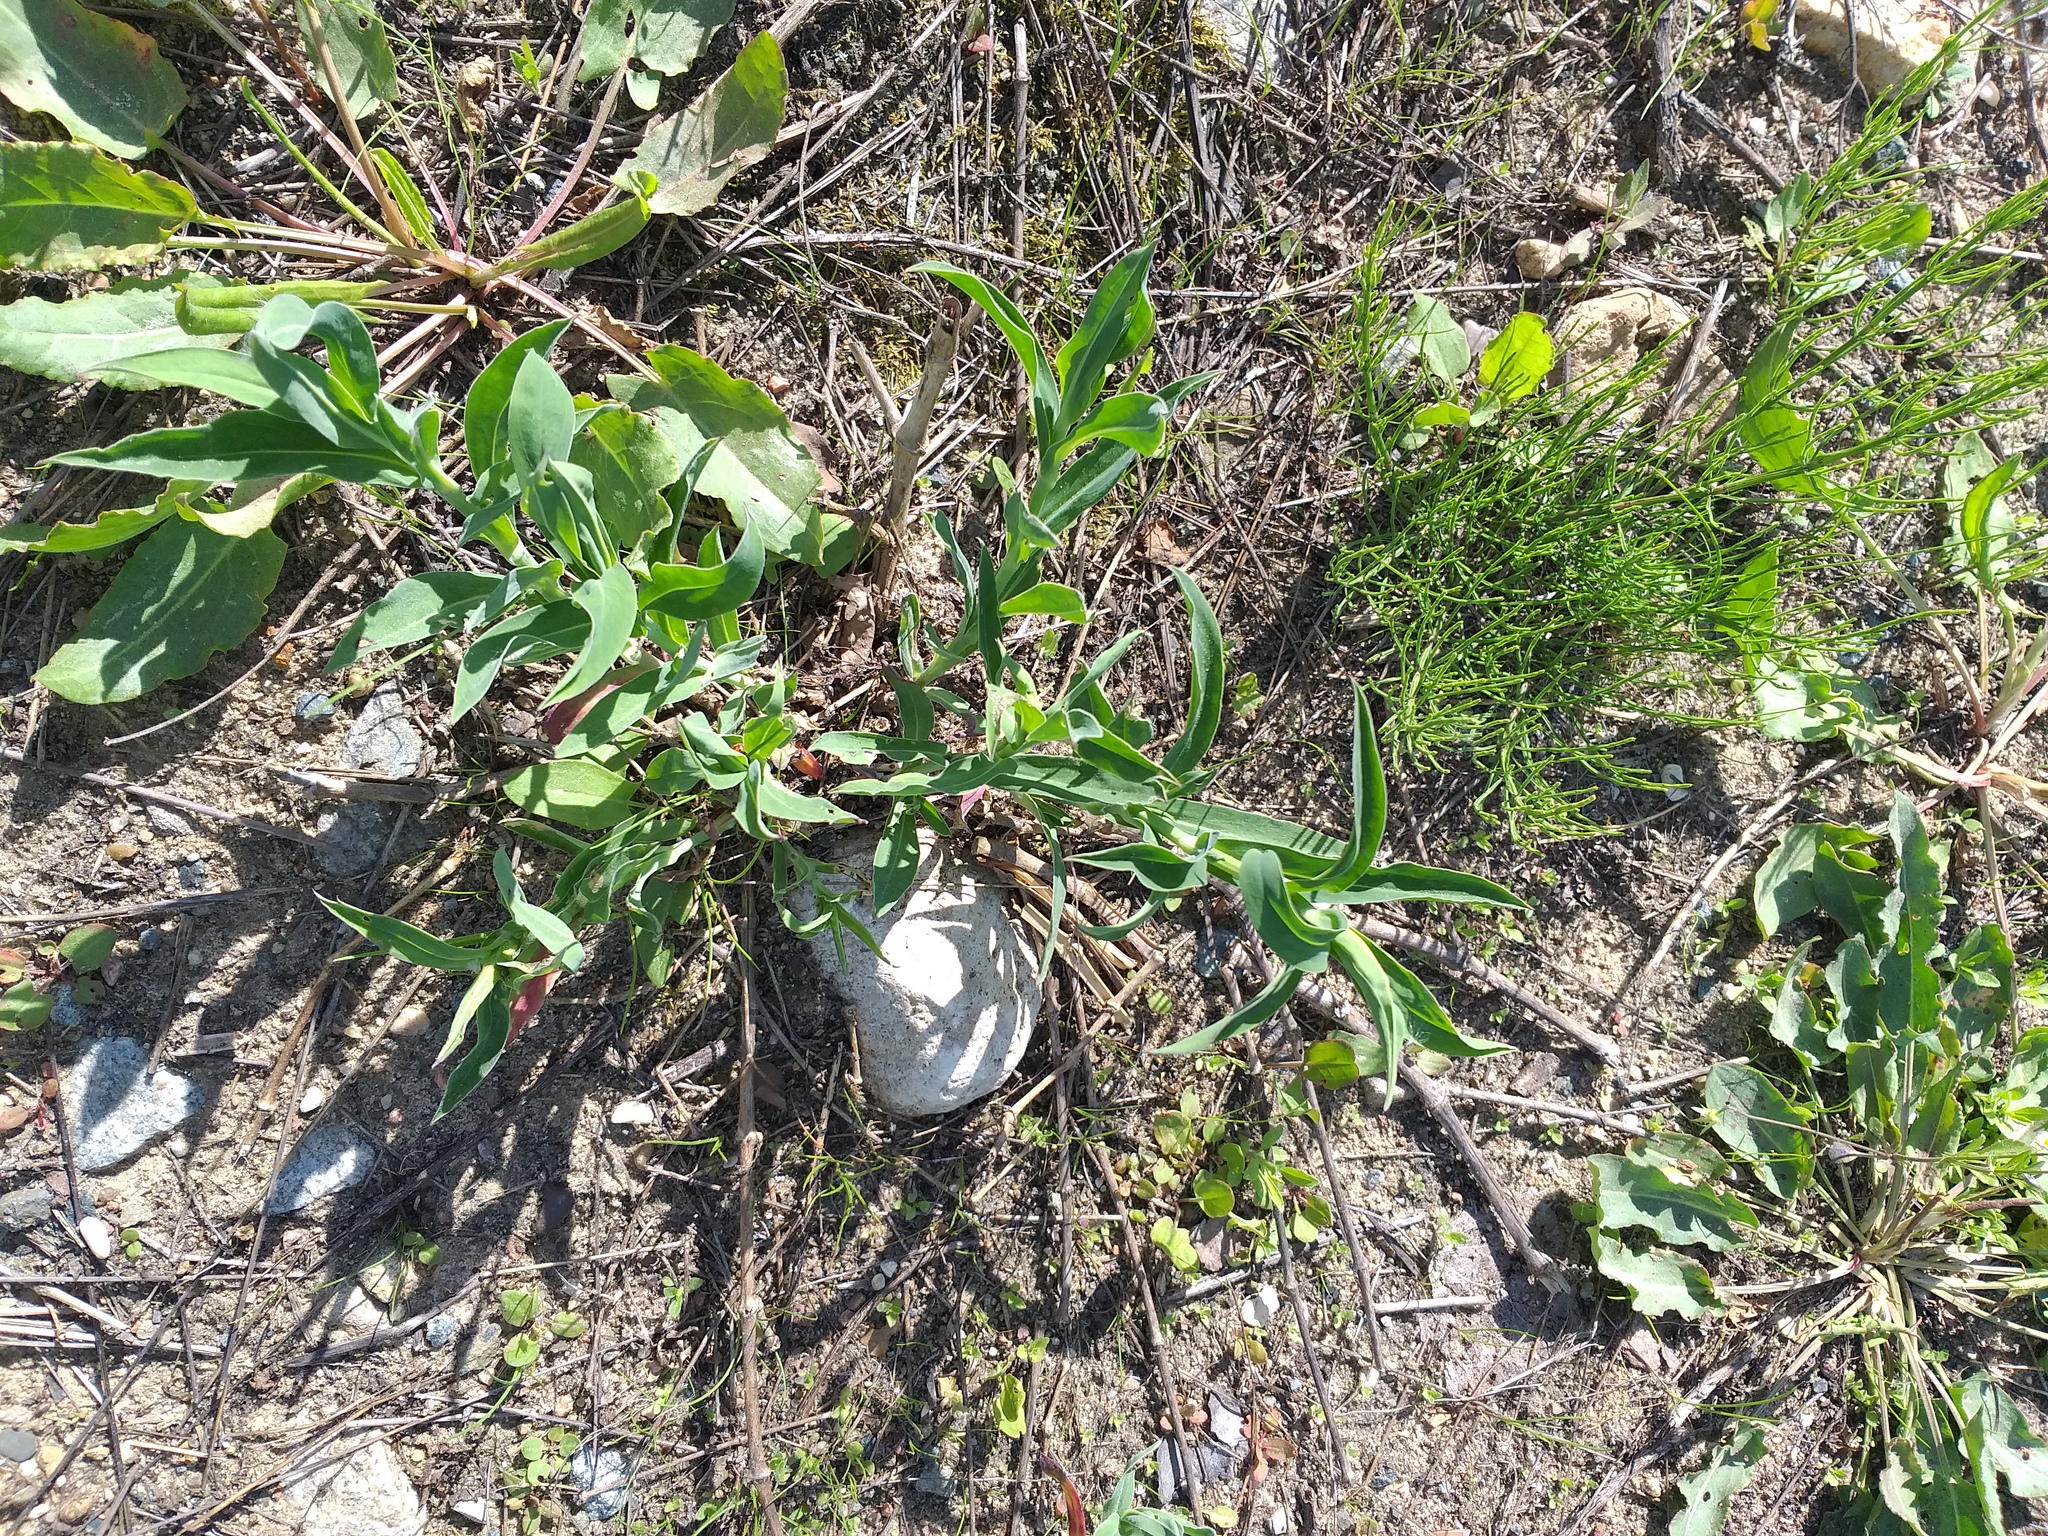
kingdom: Plantae
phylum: Tracheophyta
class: Magnoliopsida
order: Caryophyllales
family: Caryophyllaceae
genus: Silene
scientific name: Silene vulgaris
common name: Bladder campion
